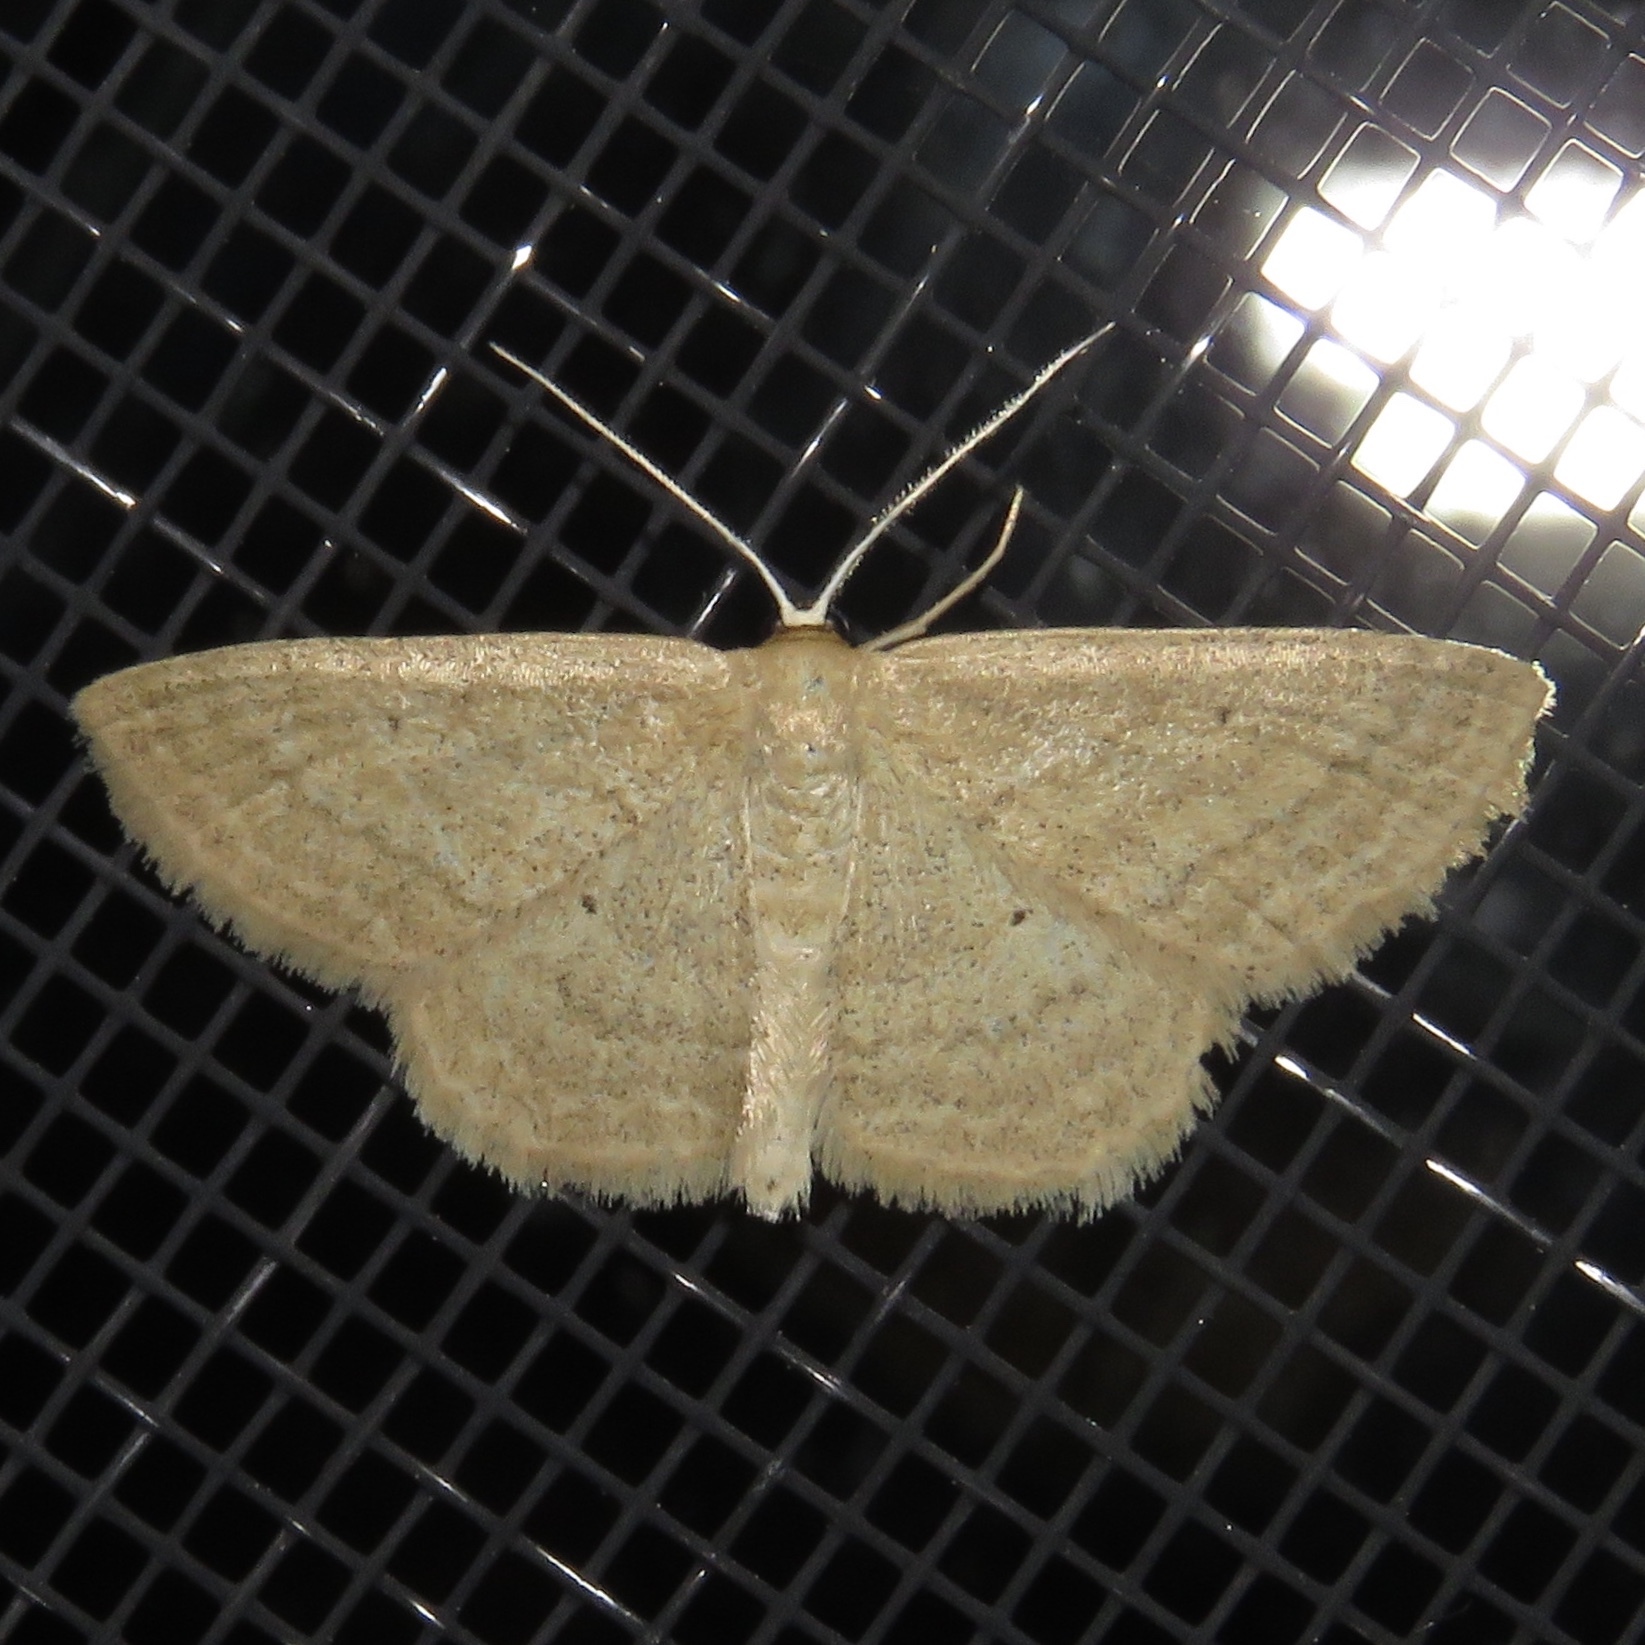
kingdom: Animalia
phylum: Arthropoda
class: Insecta
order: Lepidoptera
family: Geometridae
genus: Scopula
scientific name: Scopula inductata
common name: Soft-lined wave
